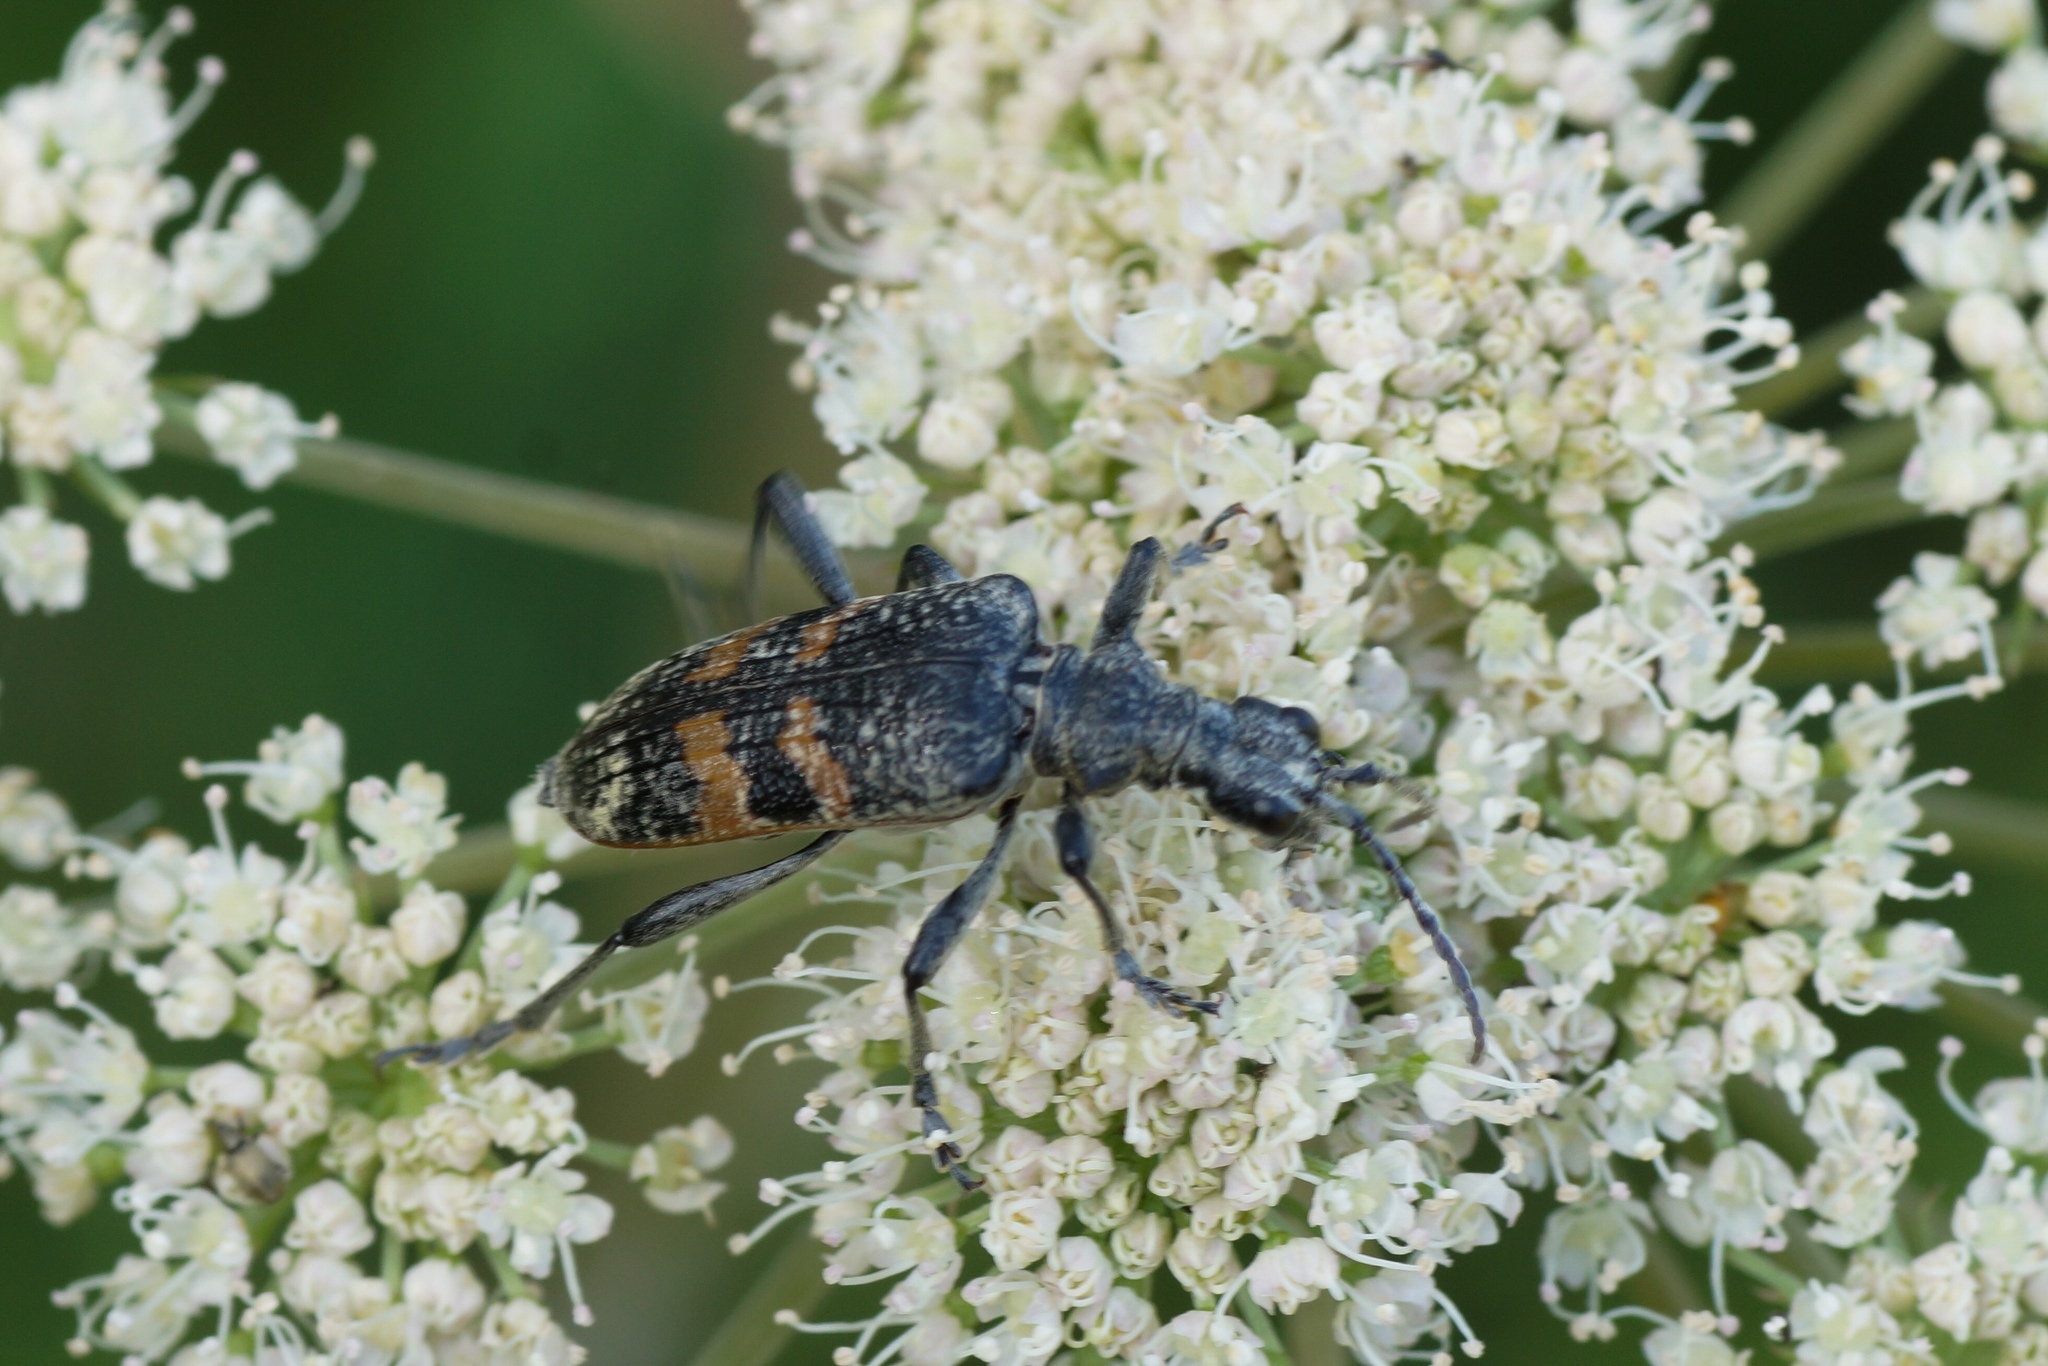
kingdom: Animalia
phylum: Arthropoda
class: Insecta
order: Coleoptera
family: Cerambycidae
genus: Rhagium
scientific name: Rhagium mordax
